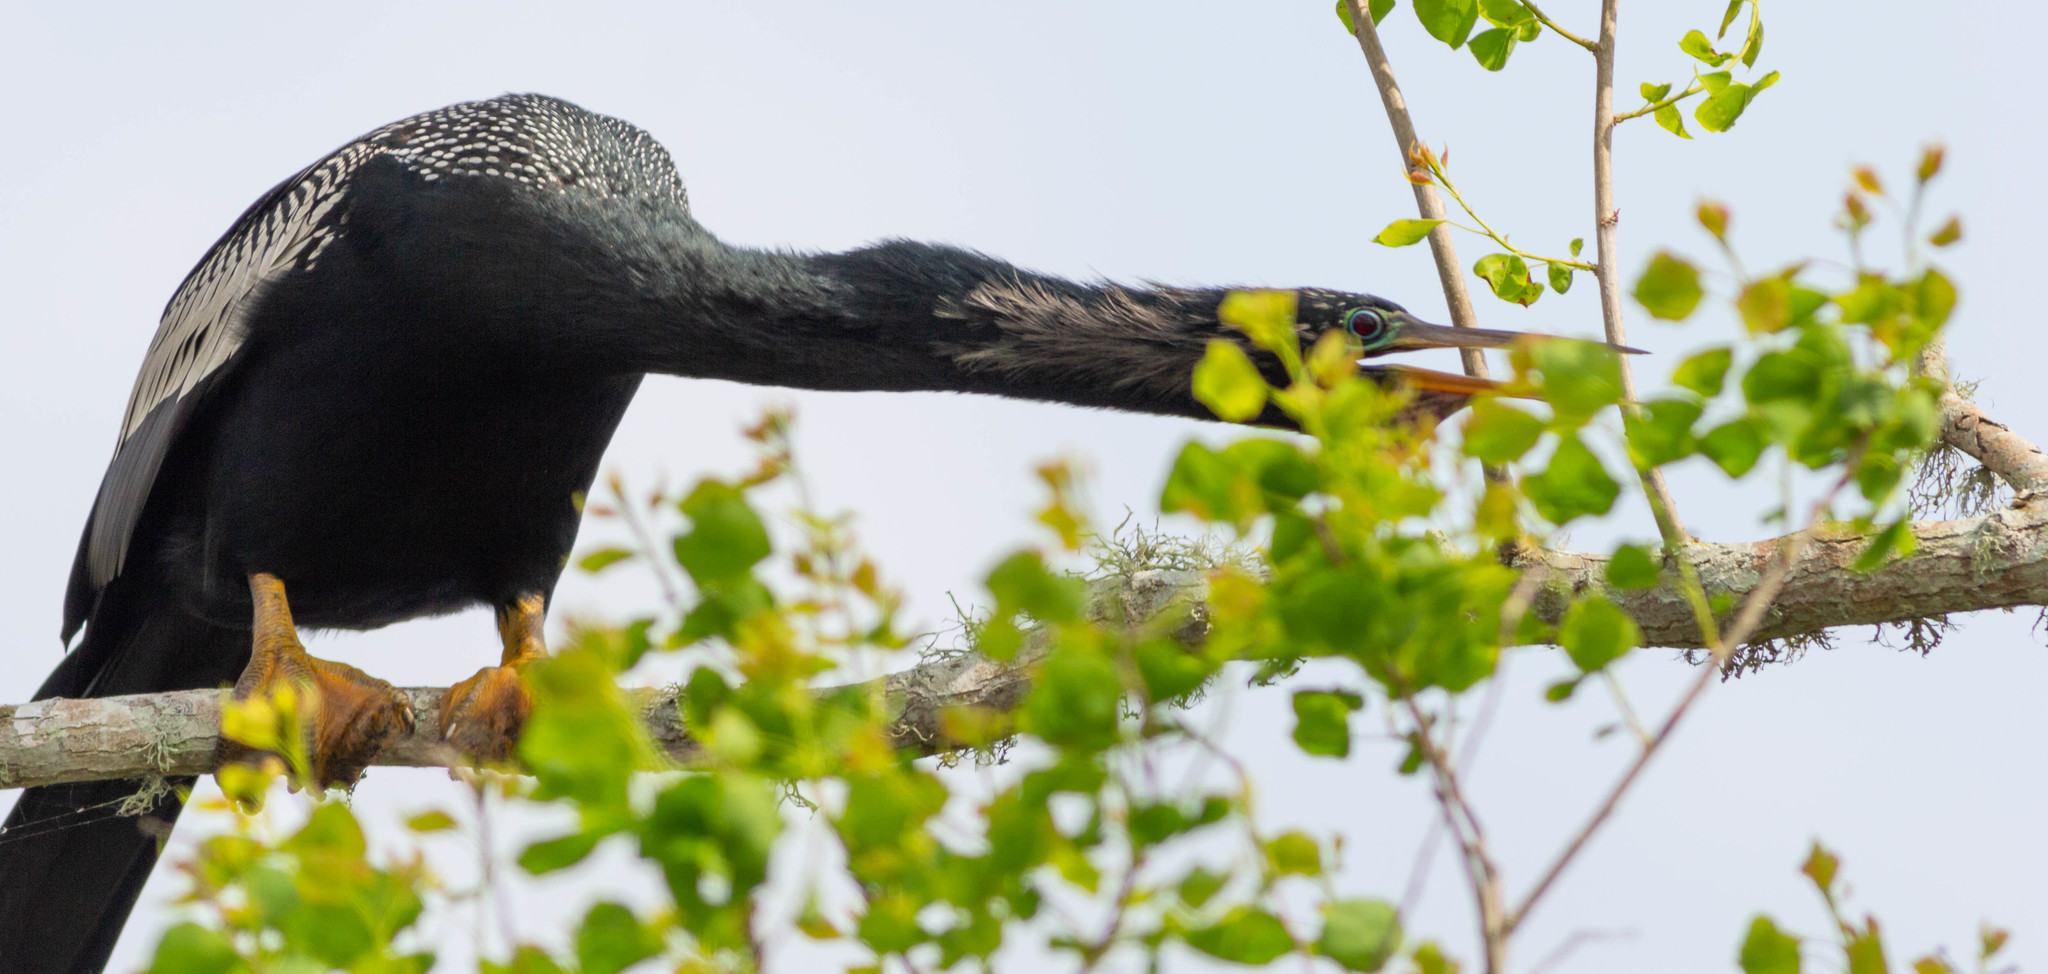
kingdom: Animalia
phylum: Chordata
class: Aves
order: Suliformes
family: Anhingidae
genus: Anhinga
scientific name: Anhinga anhinga
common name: Anhinga
